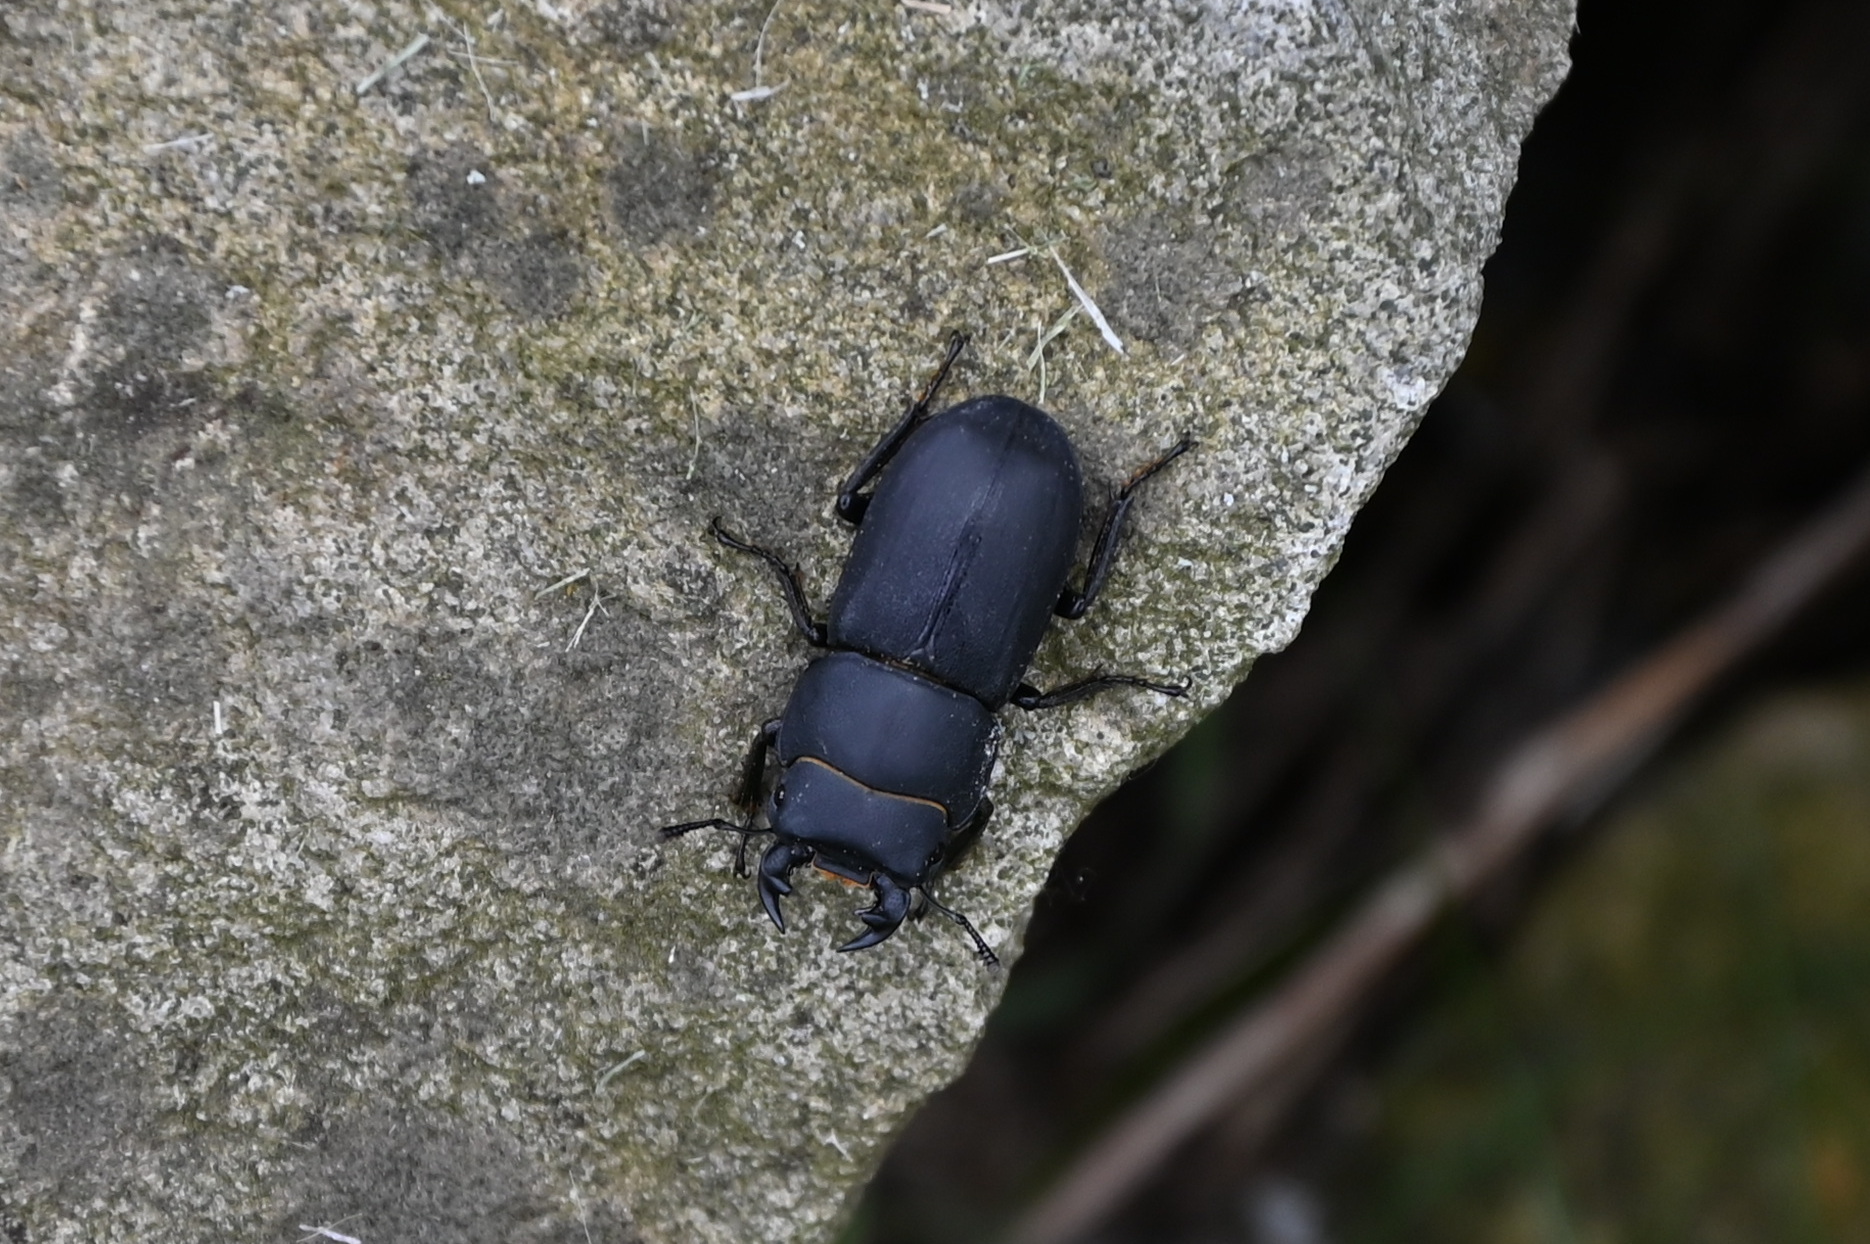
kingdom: Animalia
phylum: Arthropoda
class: Insecta
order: Coleoptera
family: Lucanidae
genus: Dorcus
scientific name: Dorcus parallelipipedus
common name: Lesser stag beetle
